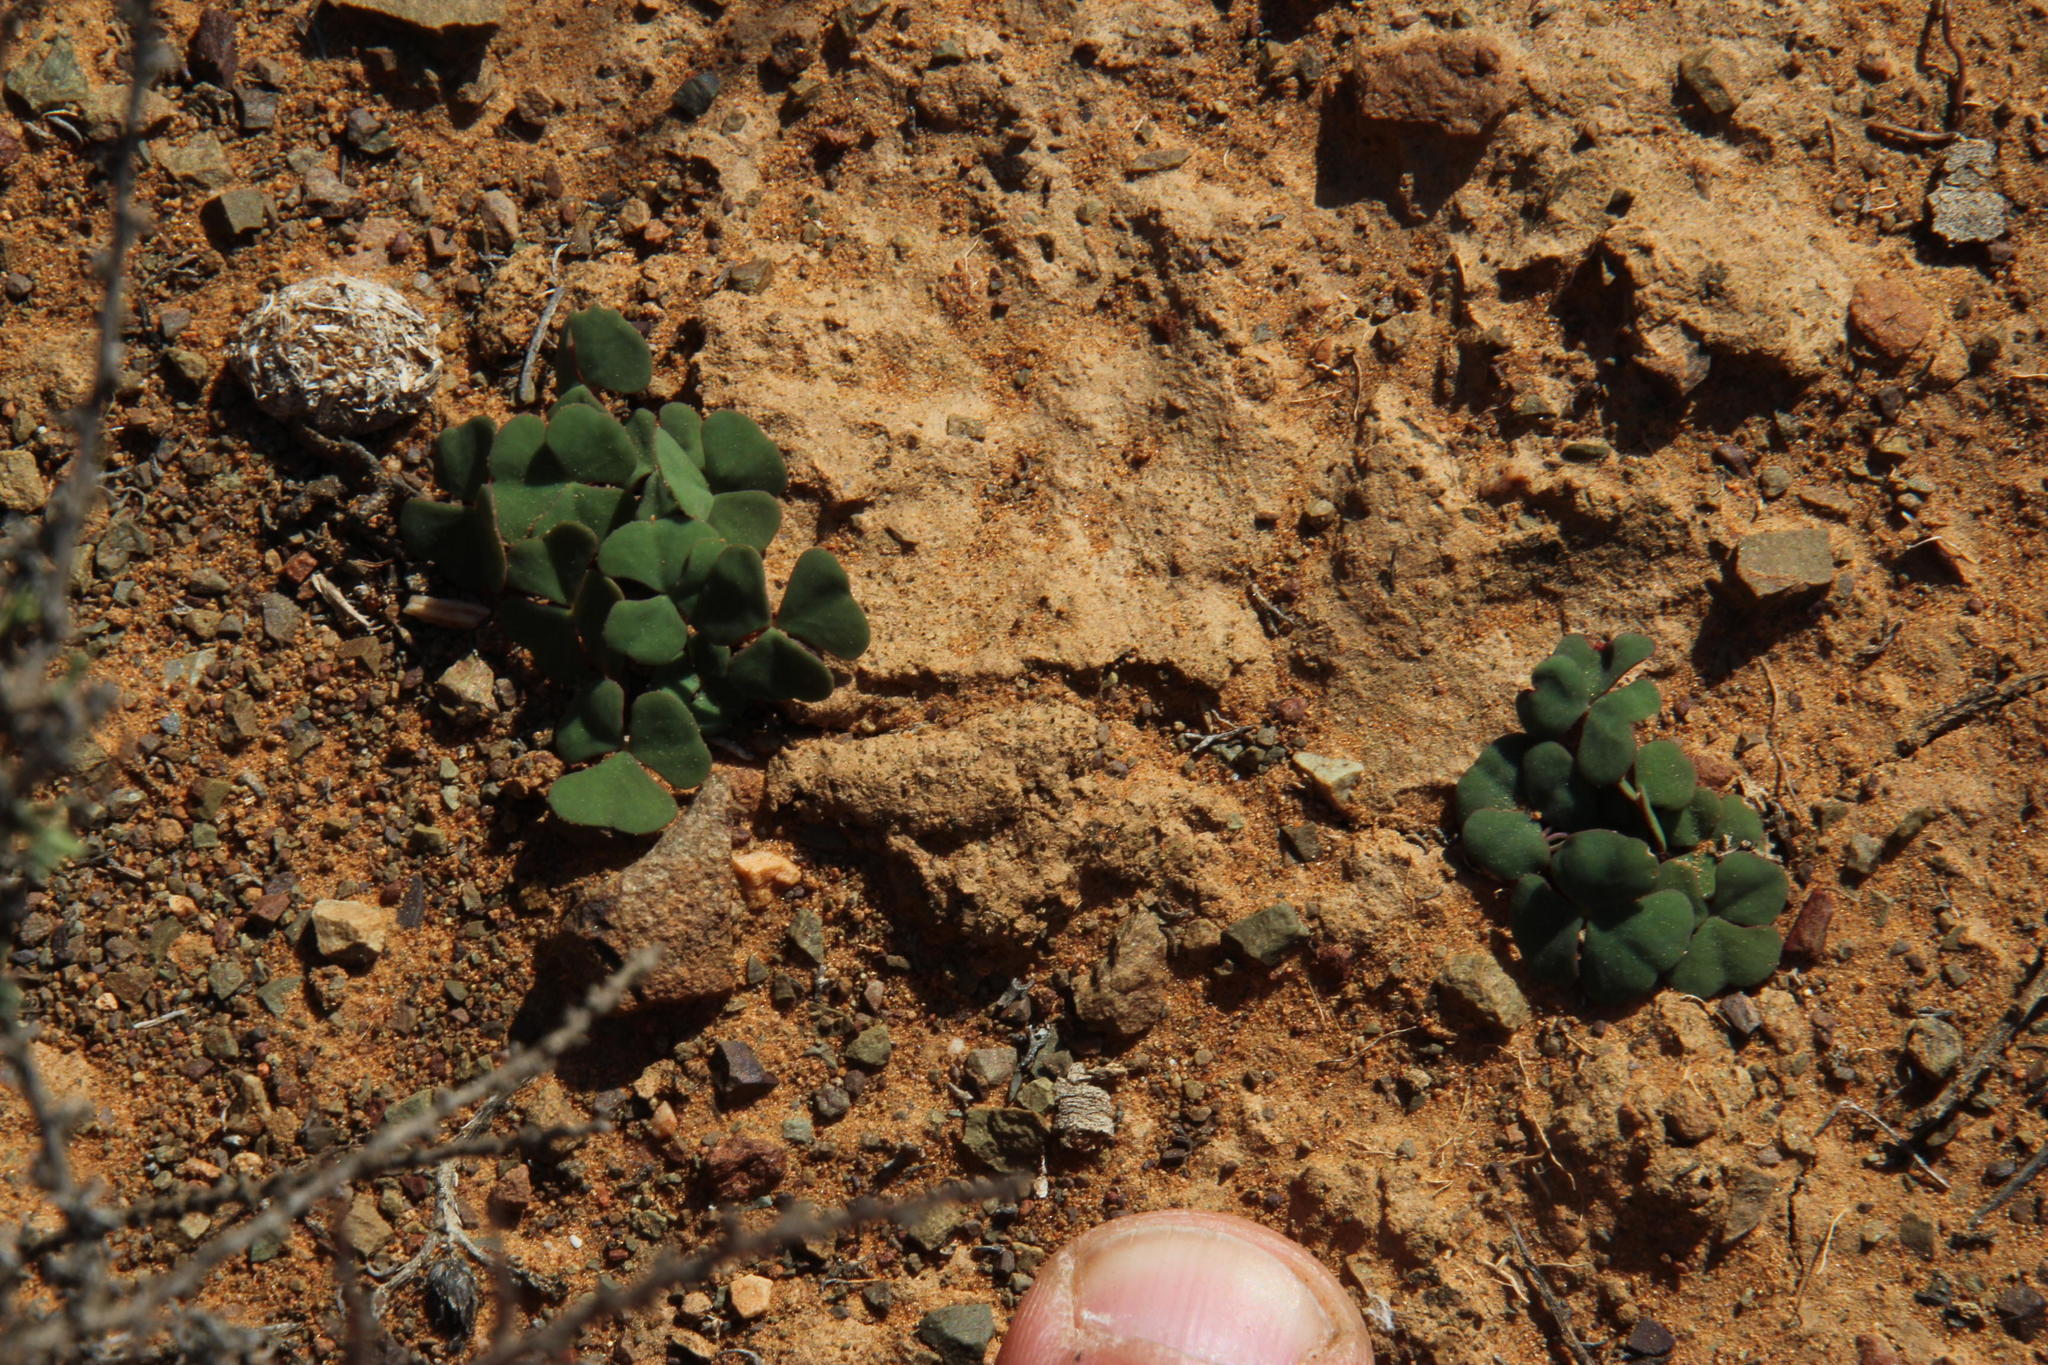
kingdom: Plantae
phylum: Tracheophyta
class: Magnoliopsida
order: Oxalidales
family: Oxalidaceae
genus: Oxalis
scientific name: Oxalis depressa
